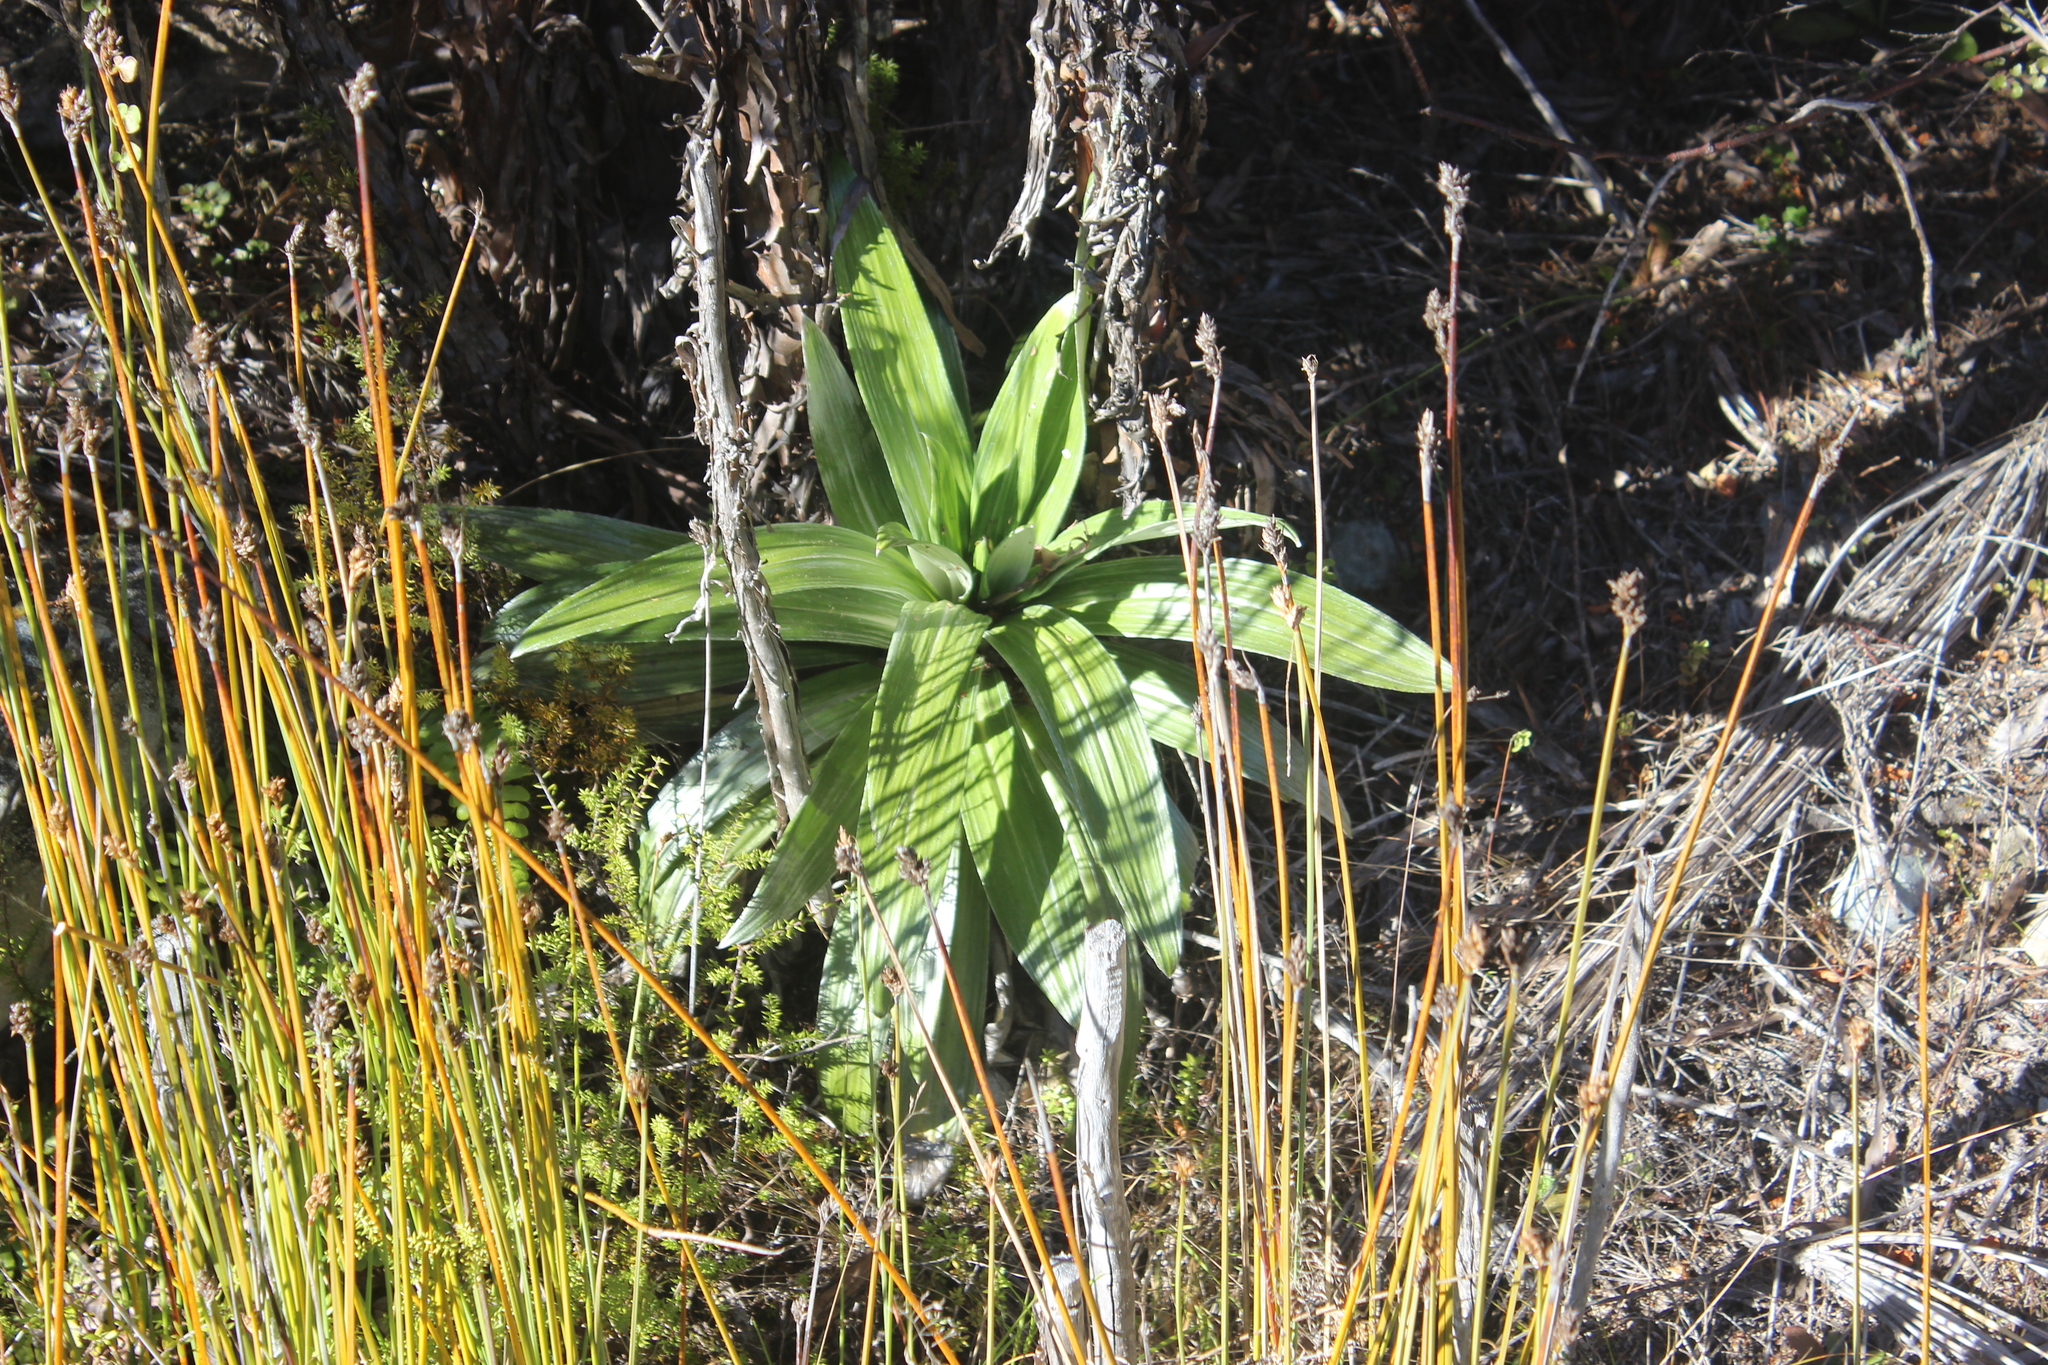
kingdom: Plantae
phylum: Tracheophyta
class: Magnoliopsida
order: Asterales
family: Asteraceae
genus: Celmisia
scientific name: Celmisia semicordata
